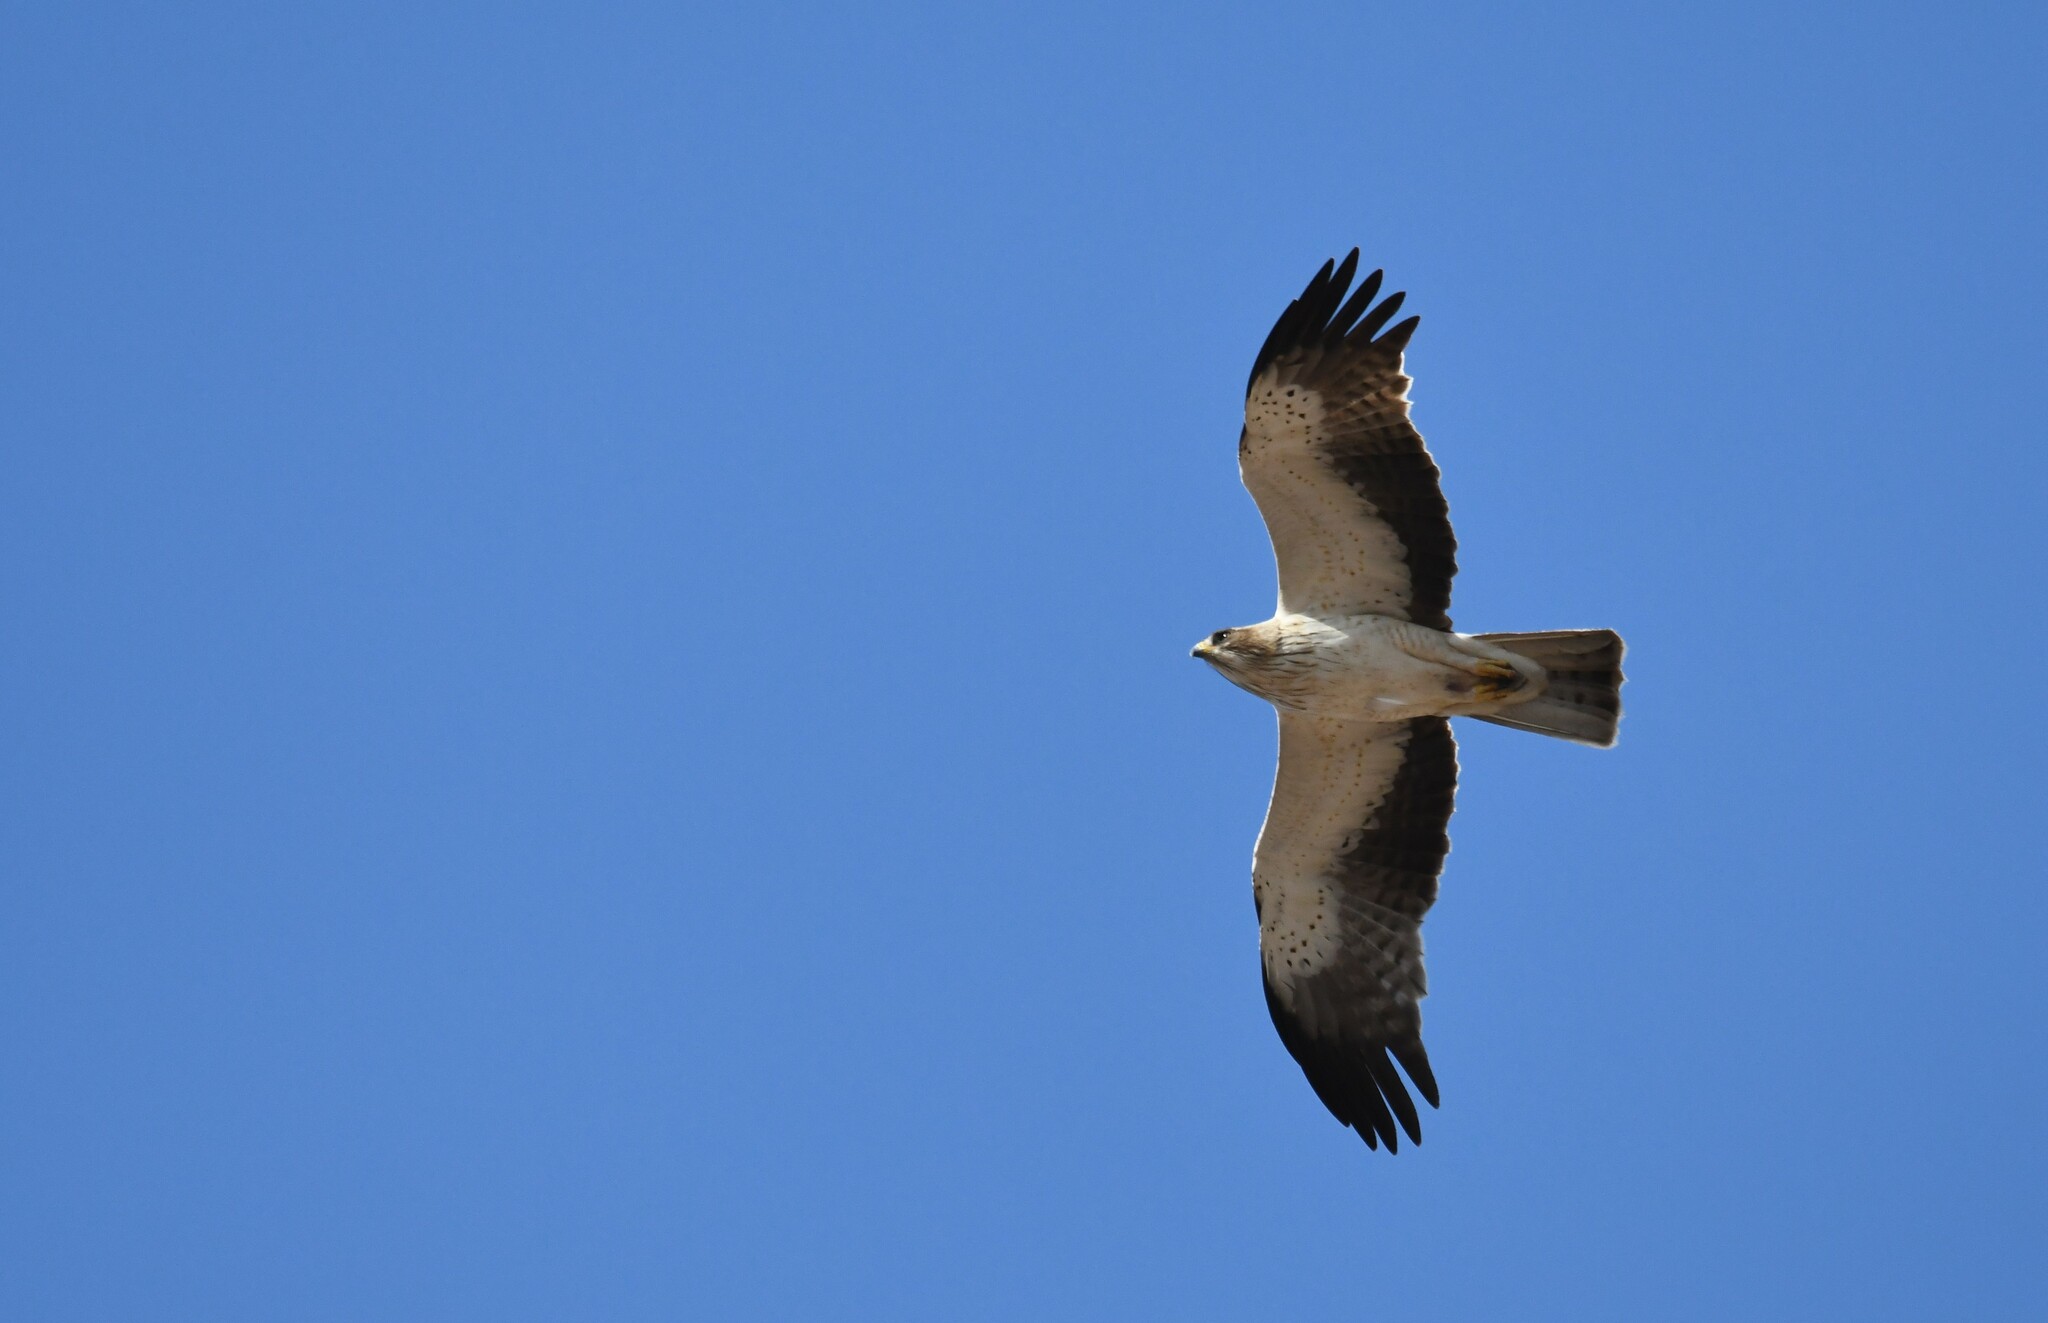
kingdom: Animalia
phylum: Chordata
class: Aves
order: Accipitriformes
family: Accipitridae
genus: Hieraaetus
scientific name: Hieraaetus pennatus
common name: Booted eagle
